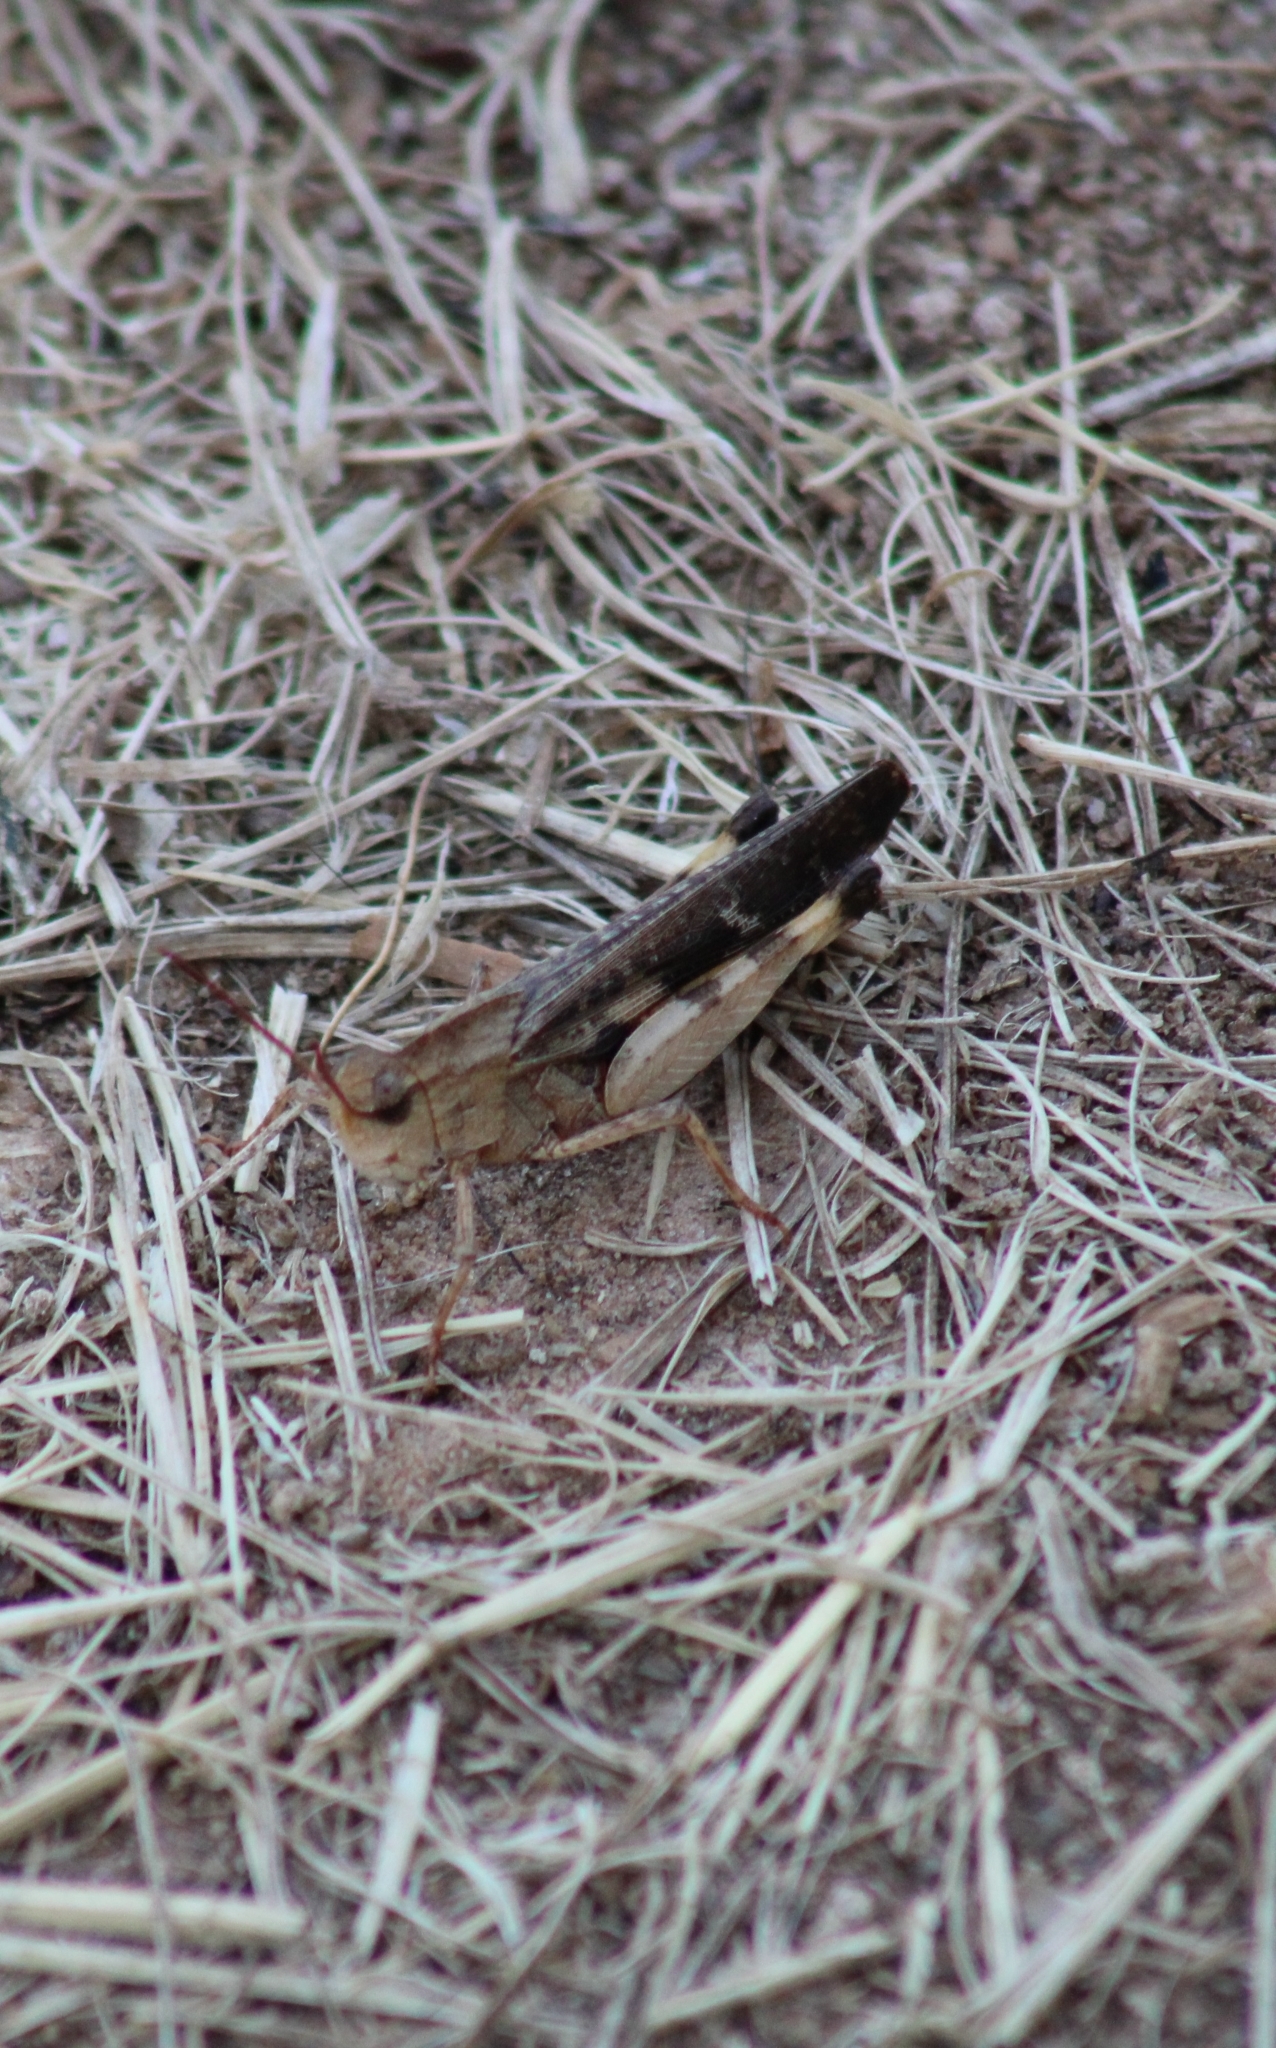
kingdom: Animalia
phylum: Arthropoda
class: Insecta
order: Orthoptera
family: Acrididae
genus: Chortophaga
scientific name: Chortophaga viridifasciata
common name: Green-striped grasshopper
